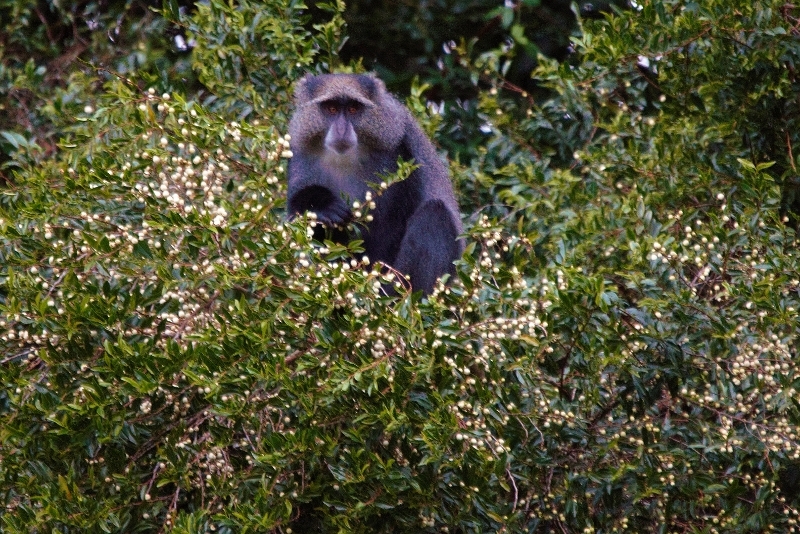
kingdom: Animalia
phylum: Chordata
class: Mammalia
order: Primates
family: Cercopithecidae
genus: Cercopithecus
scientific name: Cercopithecus mitis
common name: Blue monkey
